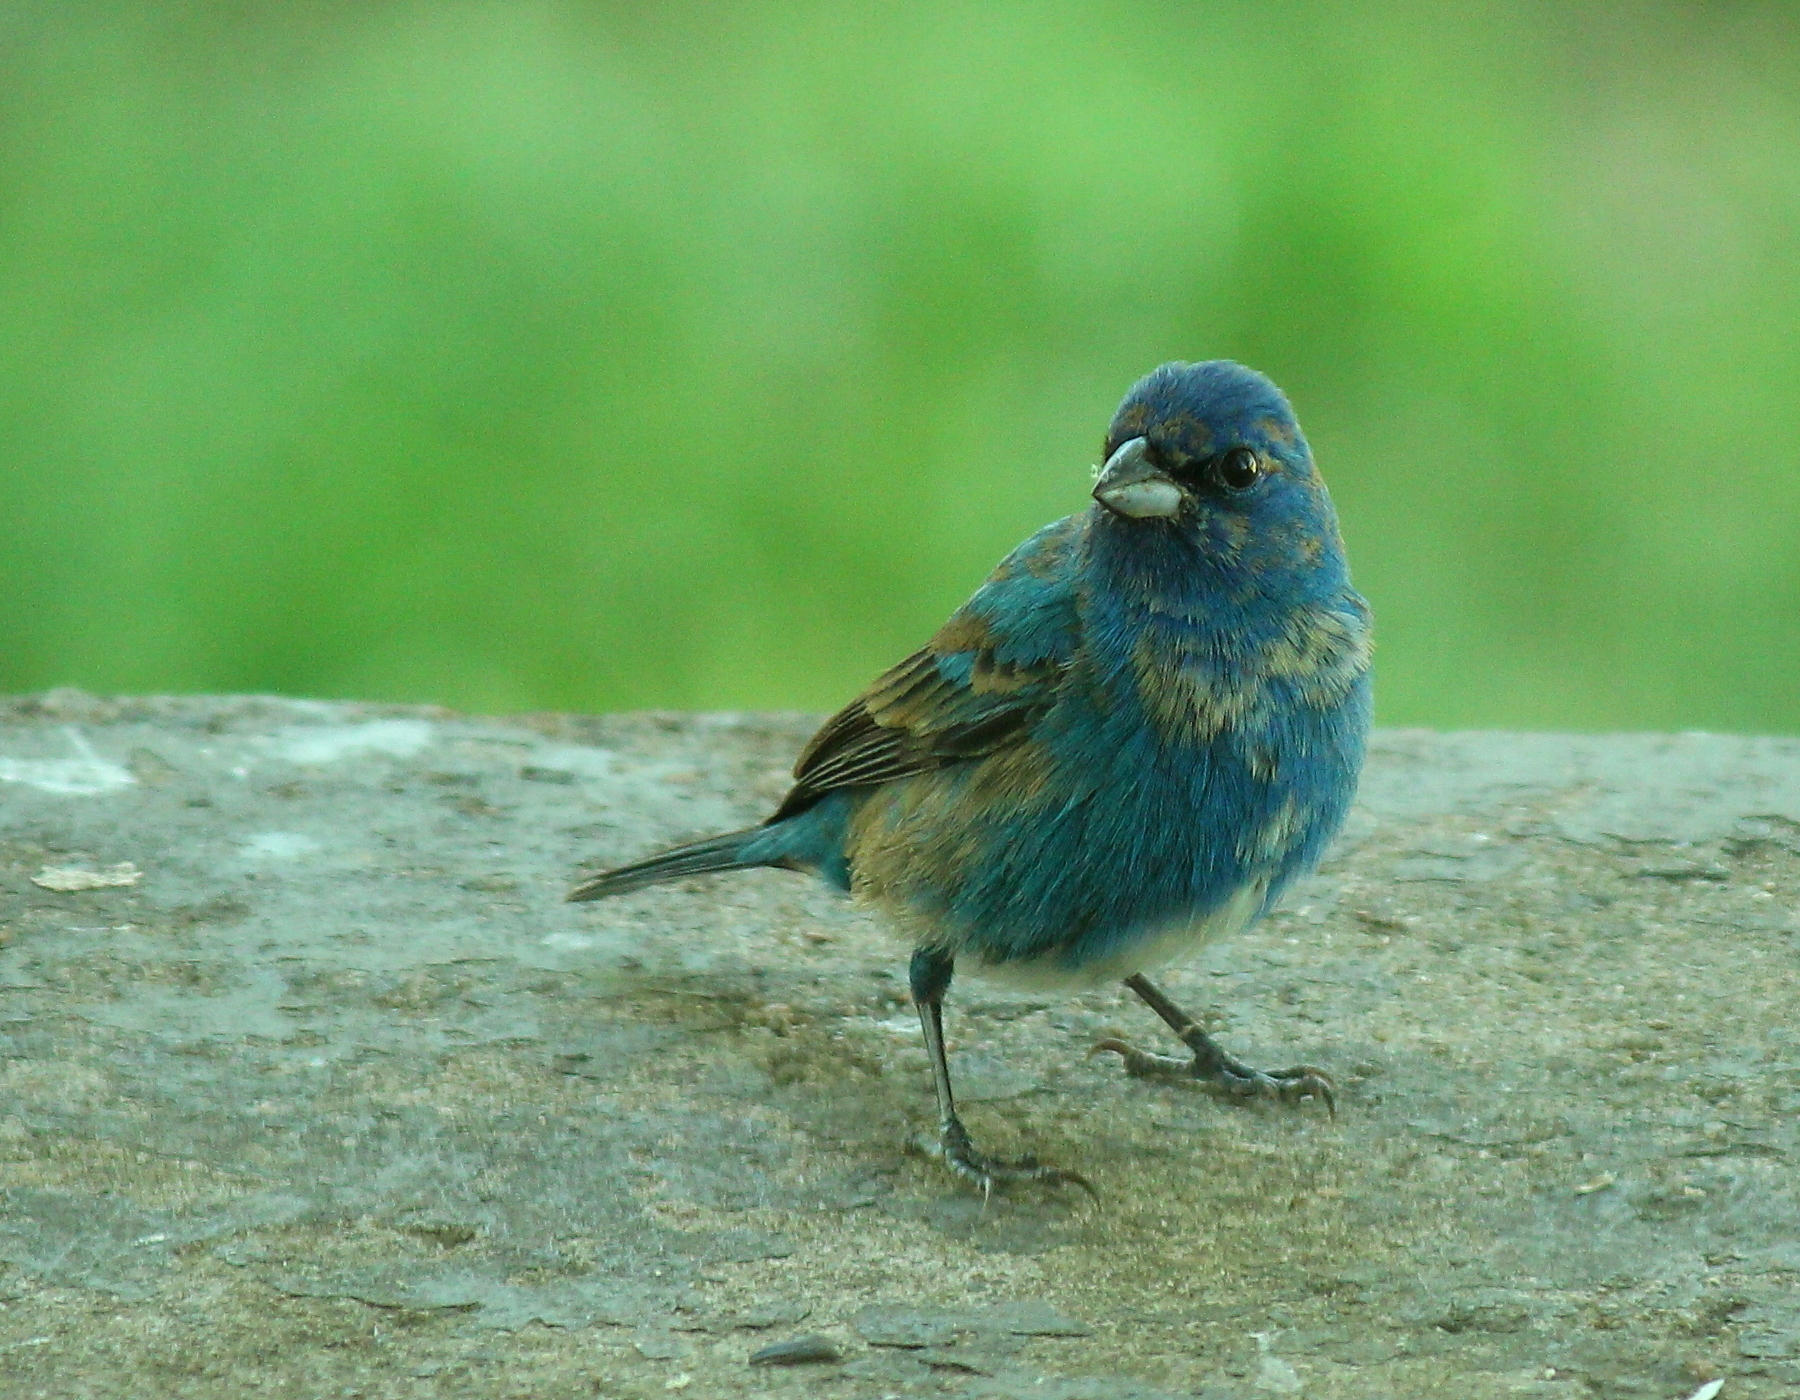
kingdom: Animalia
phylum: Chordata
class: Aves
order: Passeriformes
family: Cardinalidae
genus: Passerina
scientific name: Passerina cyanea
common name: Indigo bunting
